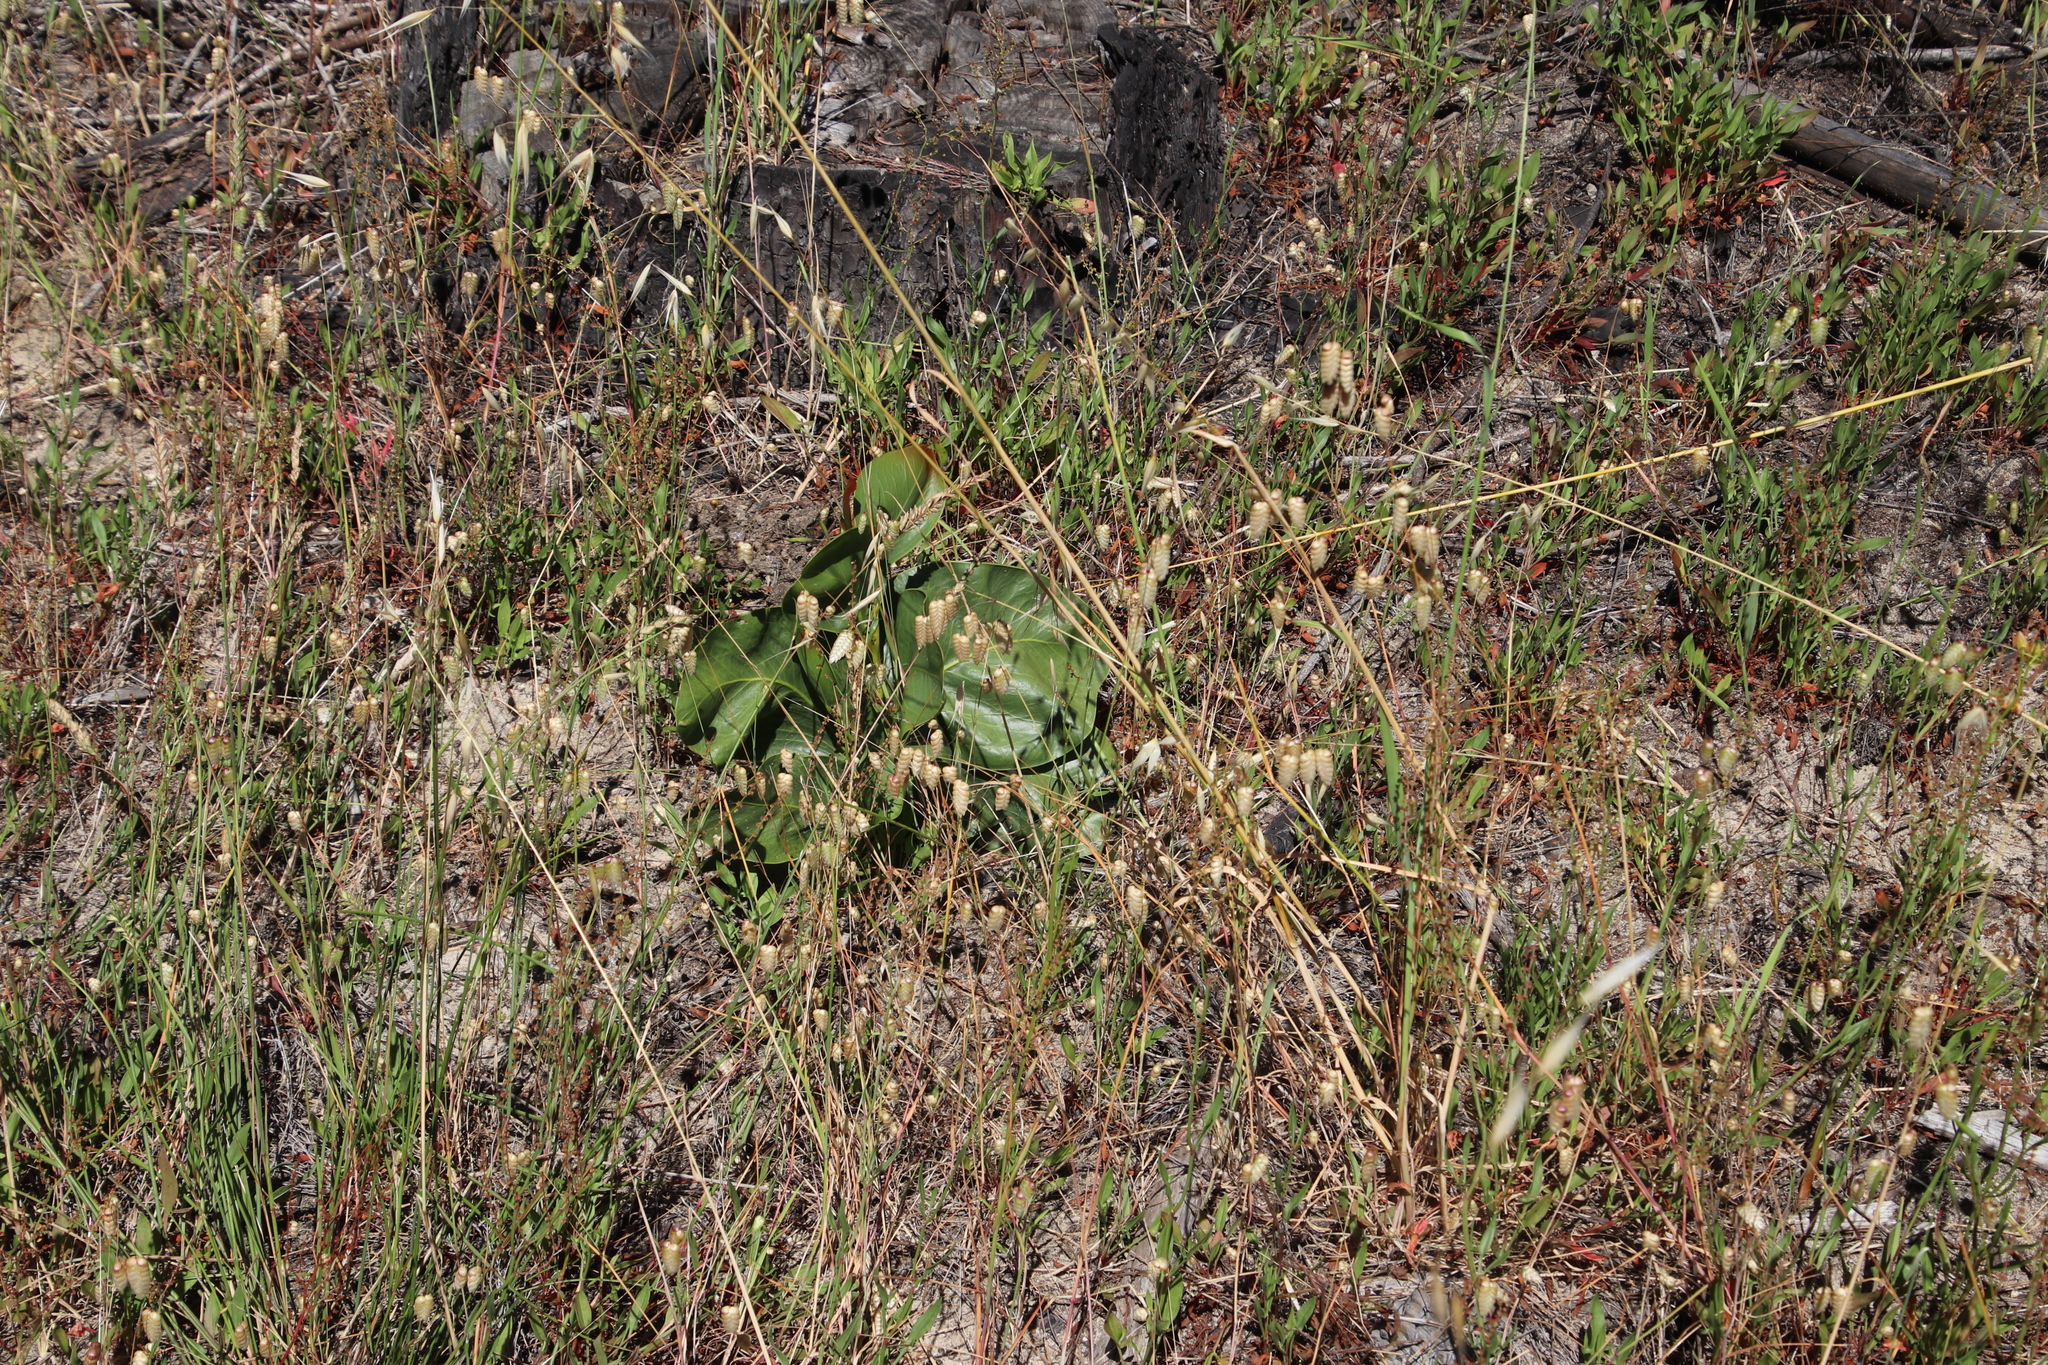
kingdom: Plantae
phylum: Tracheophyta
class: Magnoliopsida
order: Fabales
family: Fabaceae
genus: Acacia
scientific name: Acacia pycnantha
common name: Golden wattle
